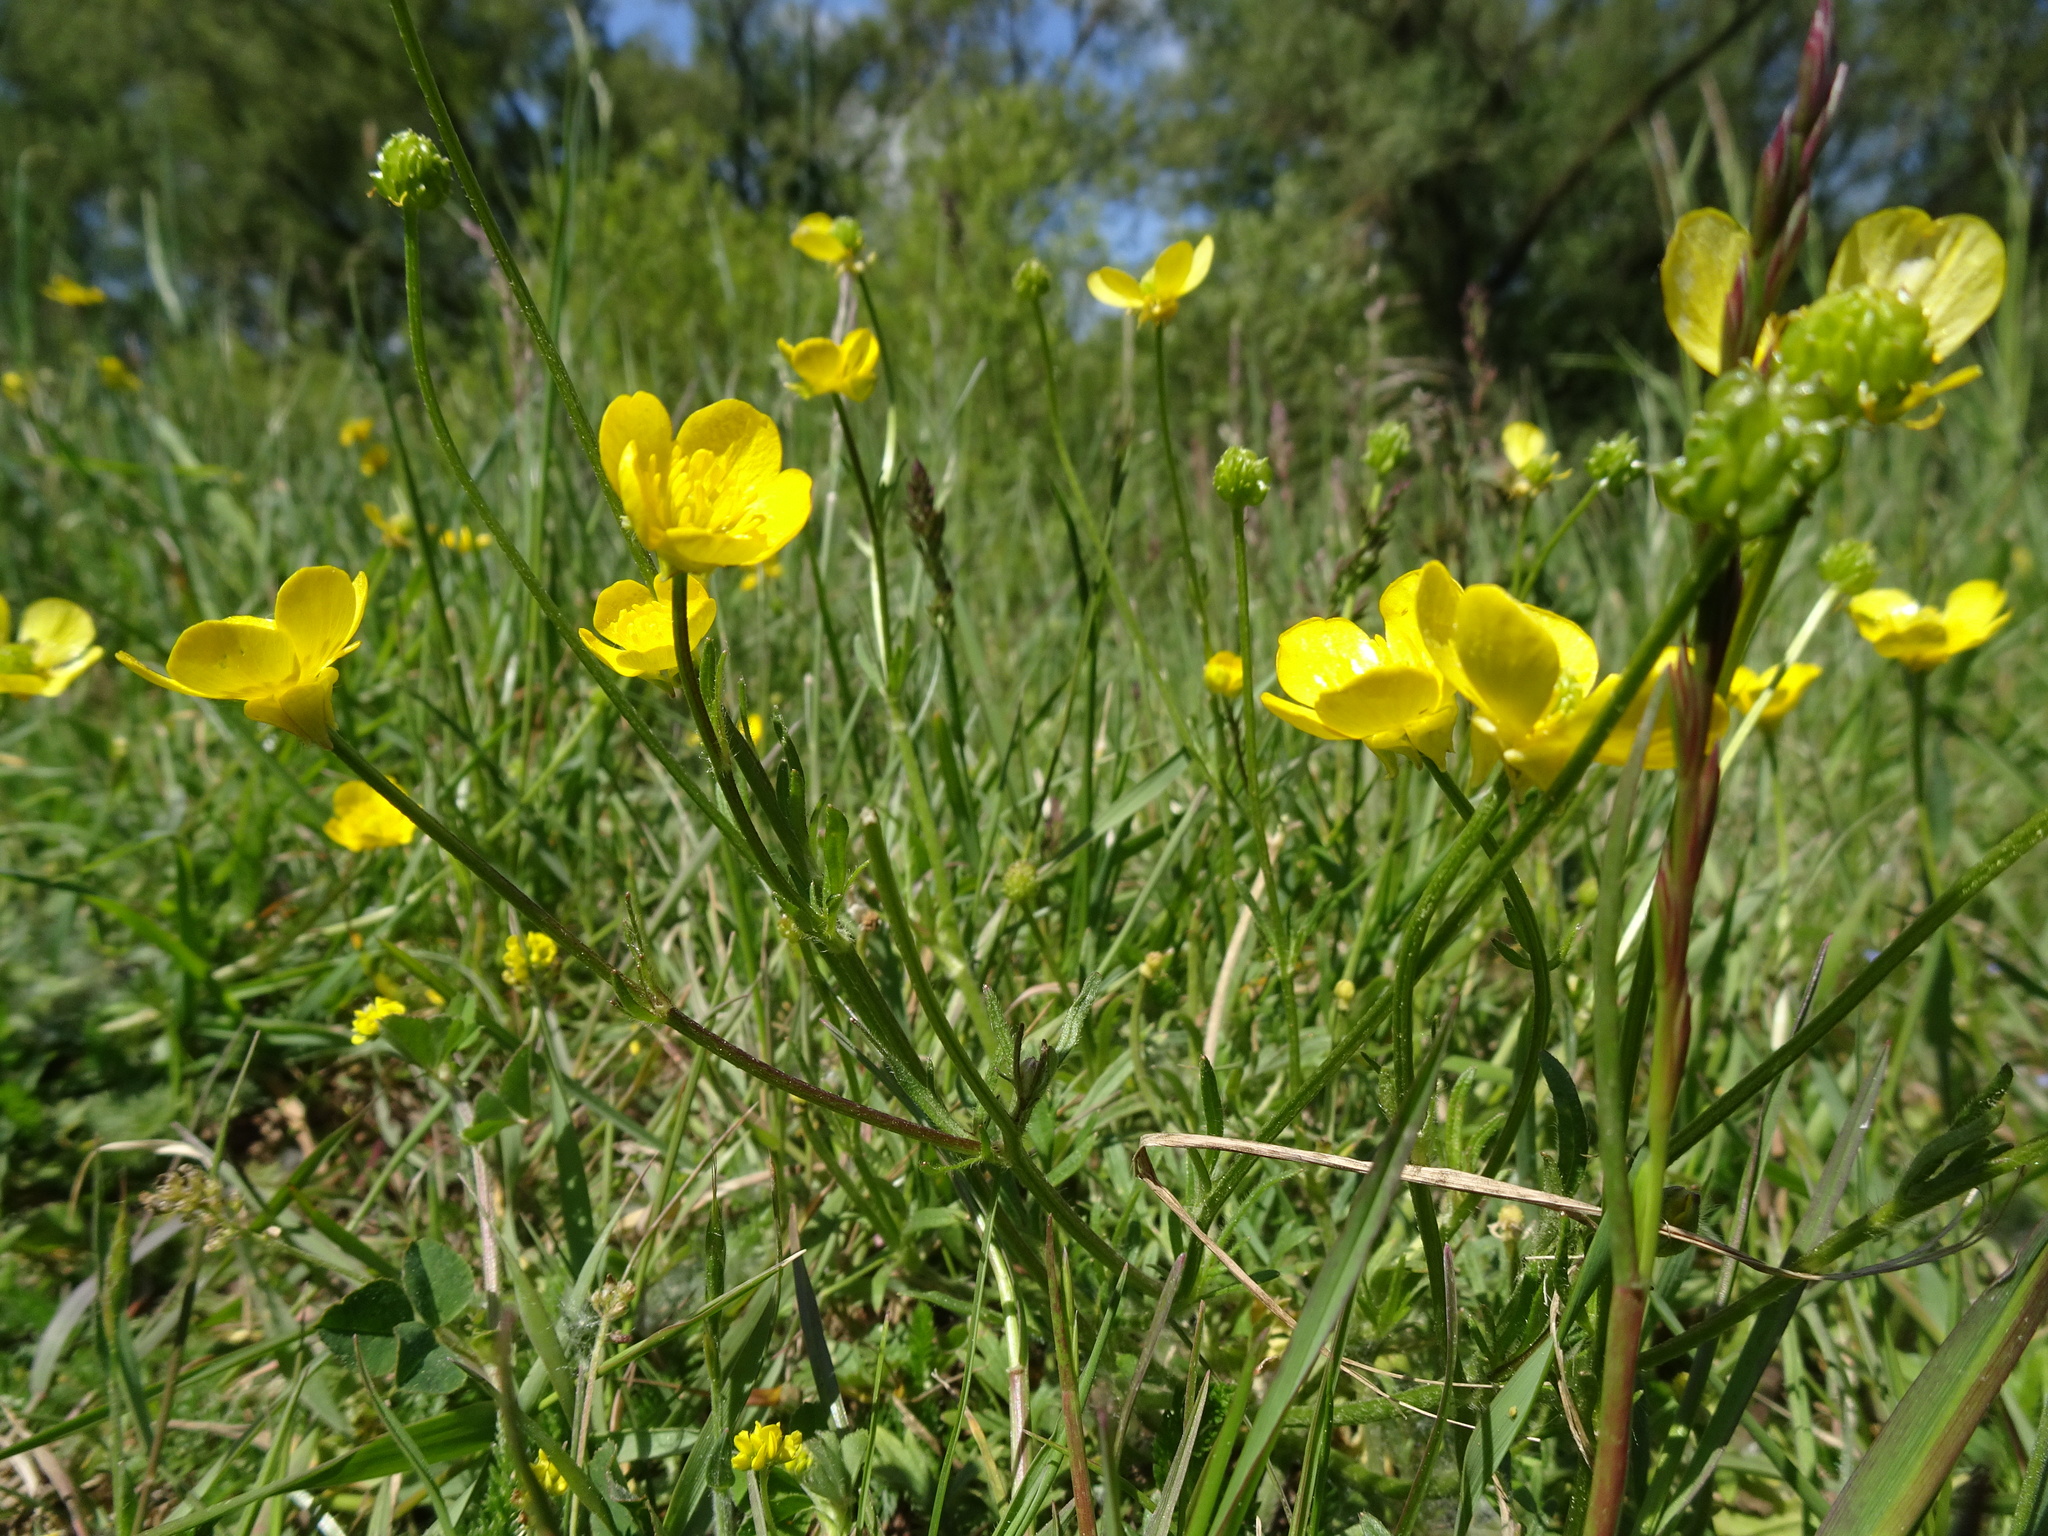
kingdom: Plantae
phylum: Tracheophyta
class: Magnoliopsida
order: Ranunculales
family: Ranunculaceae
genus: Ranunculus
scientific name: Ranunculus bulbosus
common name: Bulbous buttercup
